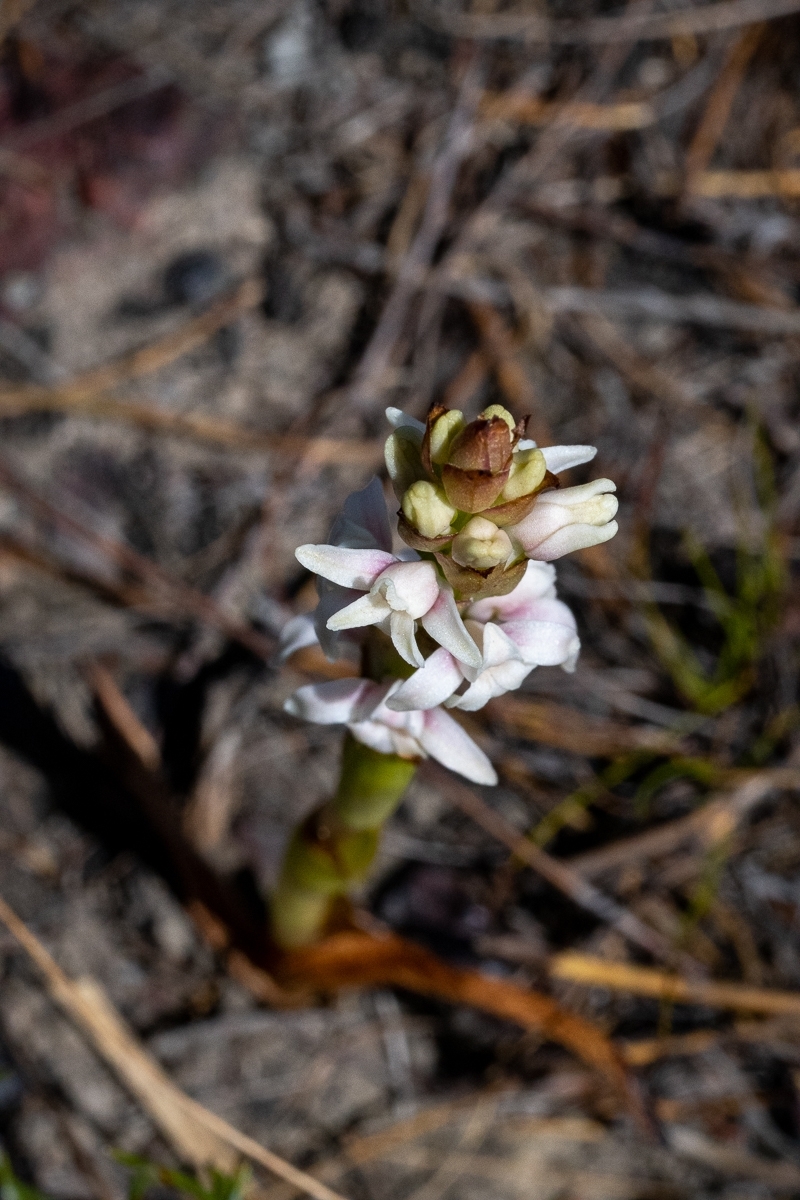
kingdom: Plantae
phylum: Tracheophyta
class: Liliopsida
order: Asparagales
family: Orchidaceae
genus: Satyrium
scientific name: Satyrium stenopetalum
